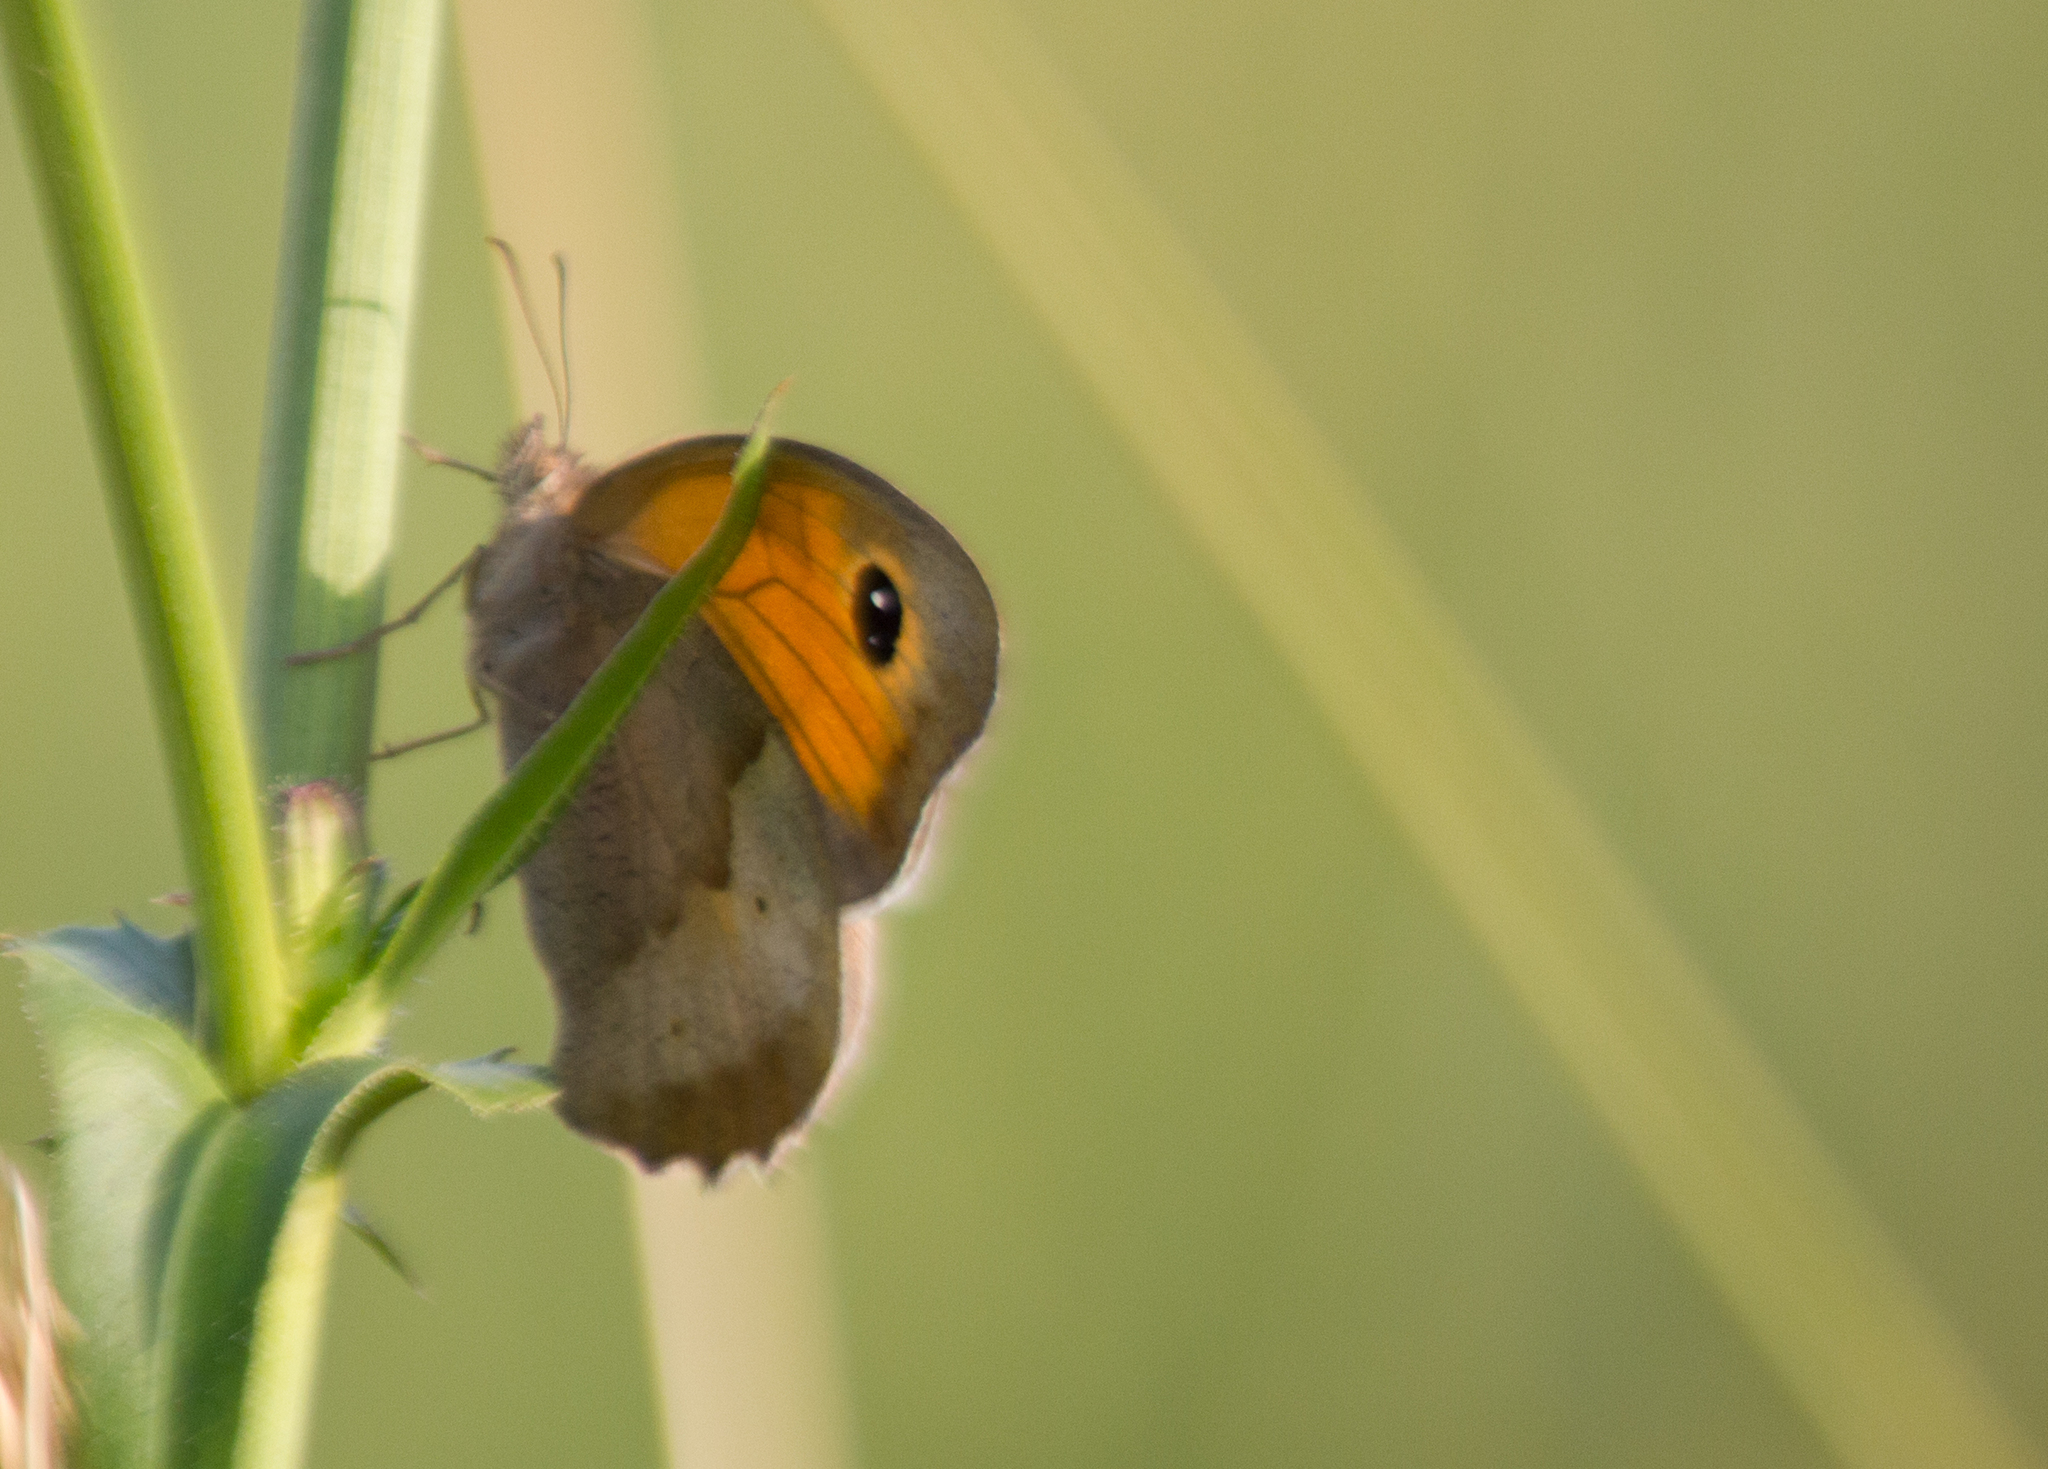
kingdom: Animalia
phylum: Arthropoda
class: Insecta
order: Lepidoptera
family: Nymphalidae
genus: Maniola
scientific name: Maniola jurtina
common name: Meadow brown
